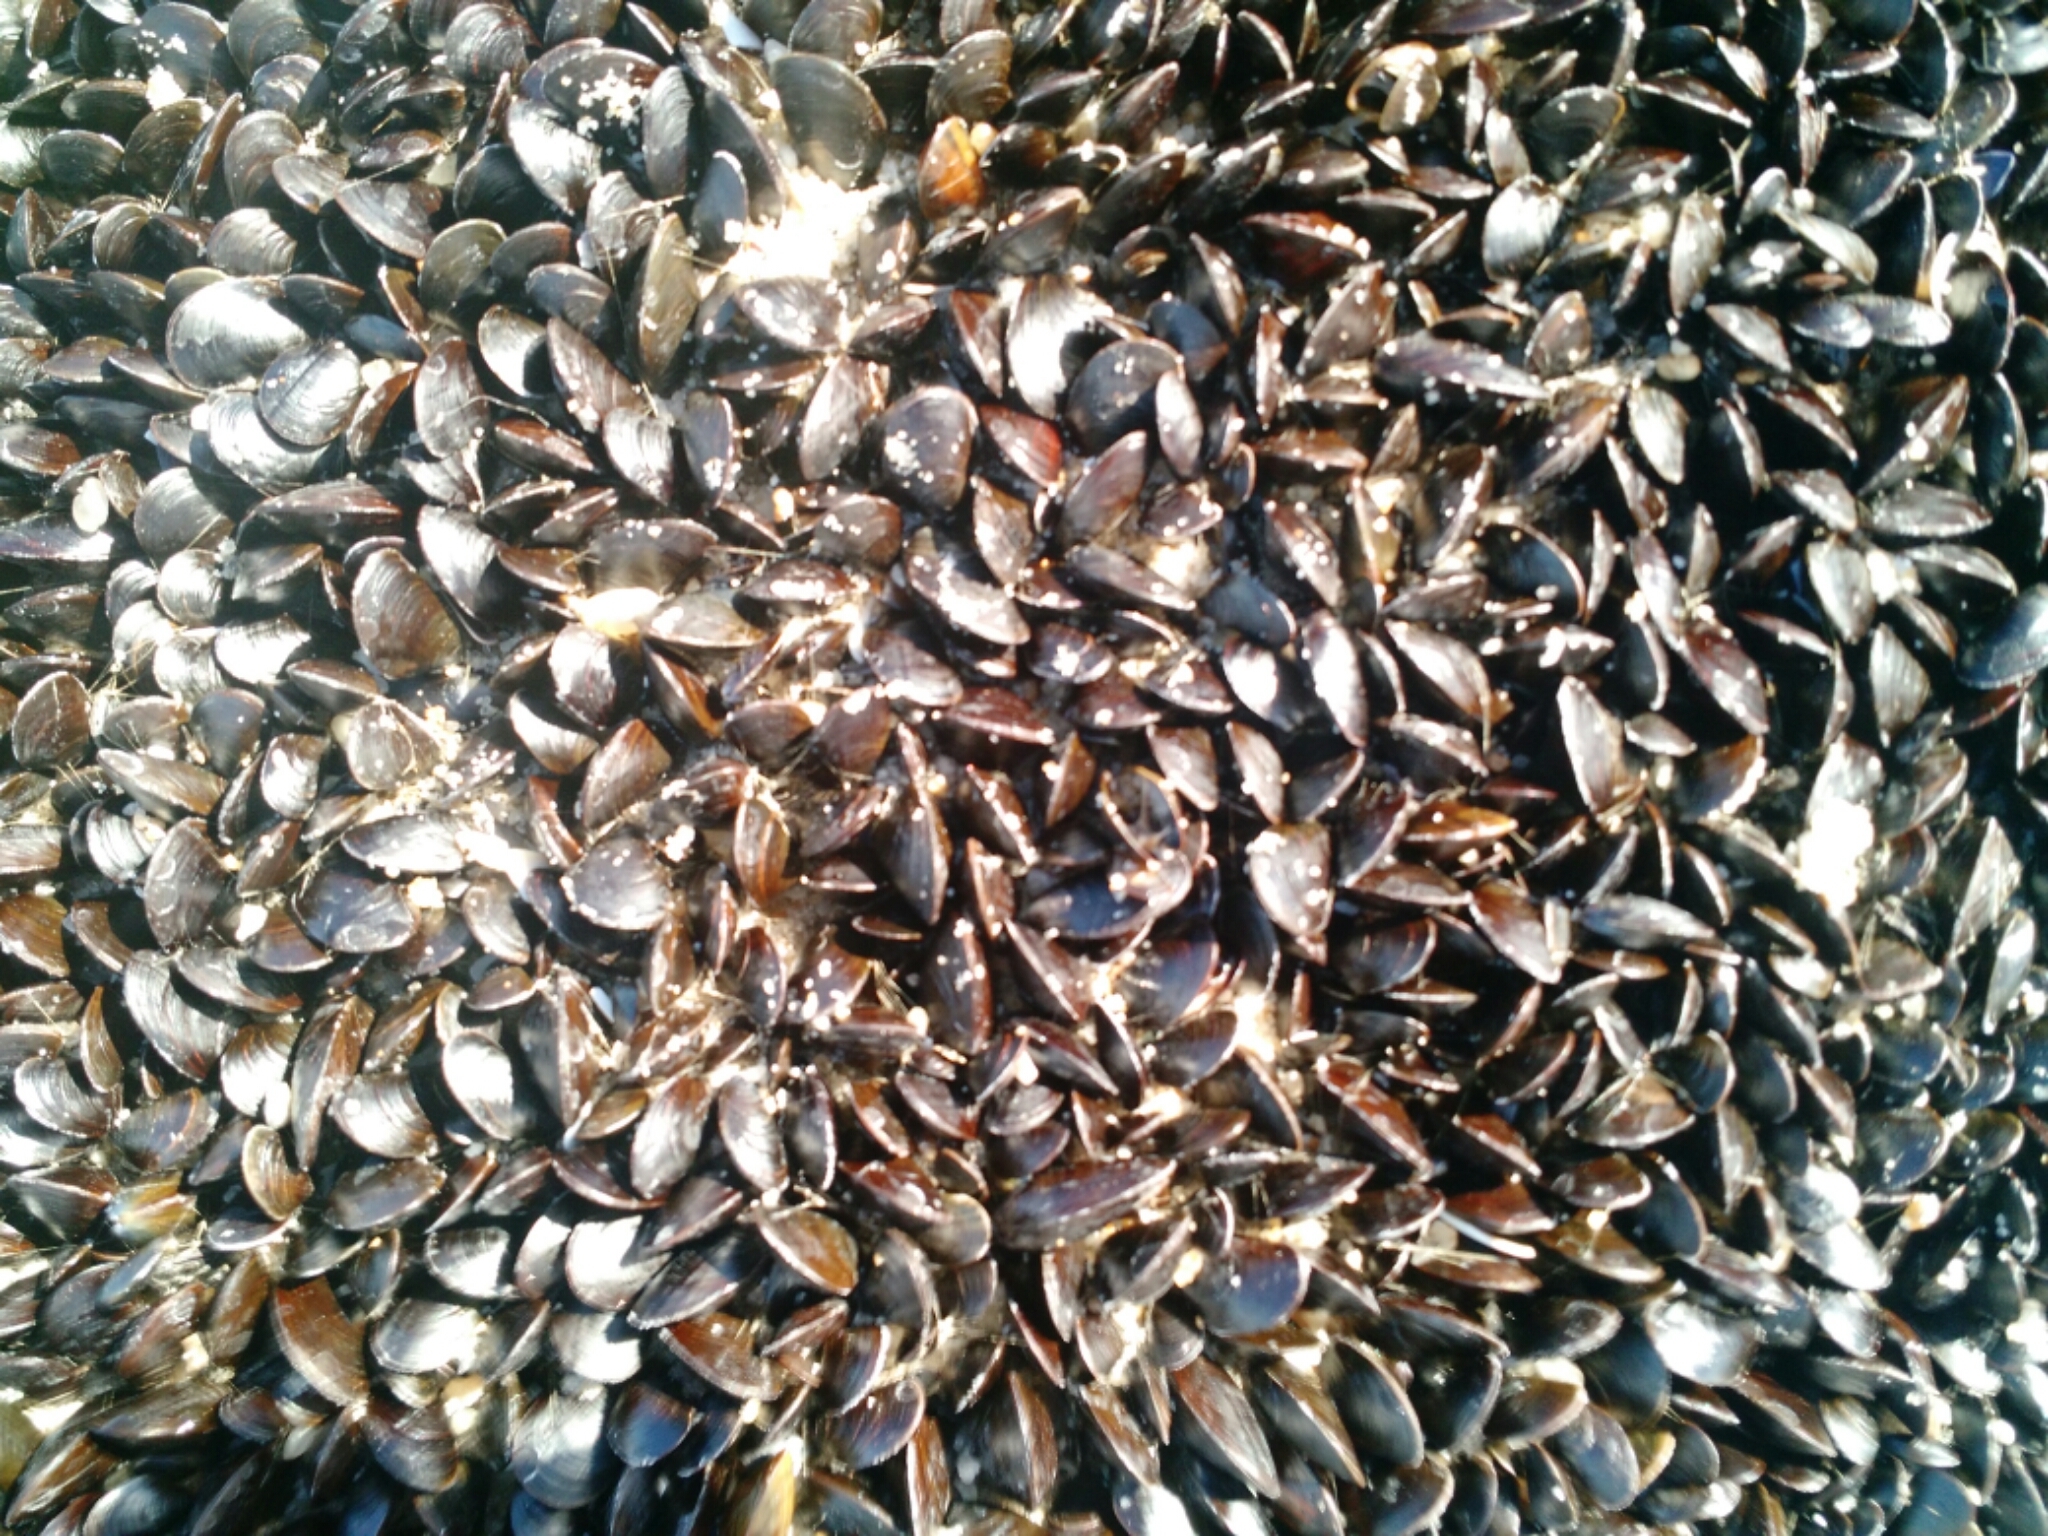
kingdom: Animalia
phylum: Mollusca
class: Bivalvia
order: Mytilida
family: Mytilidae
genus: Mytilus
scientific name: Mytilus edulis
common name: Blue mussel
